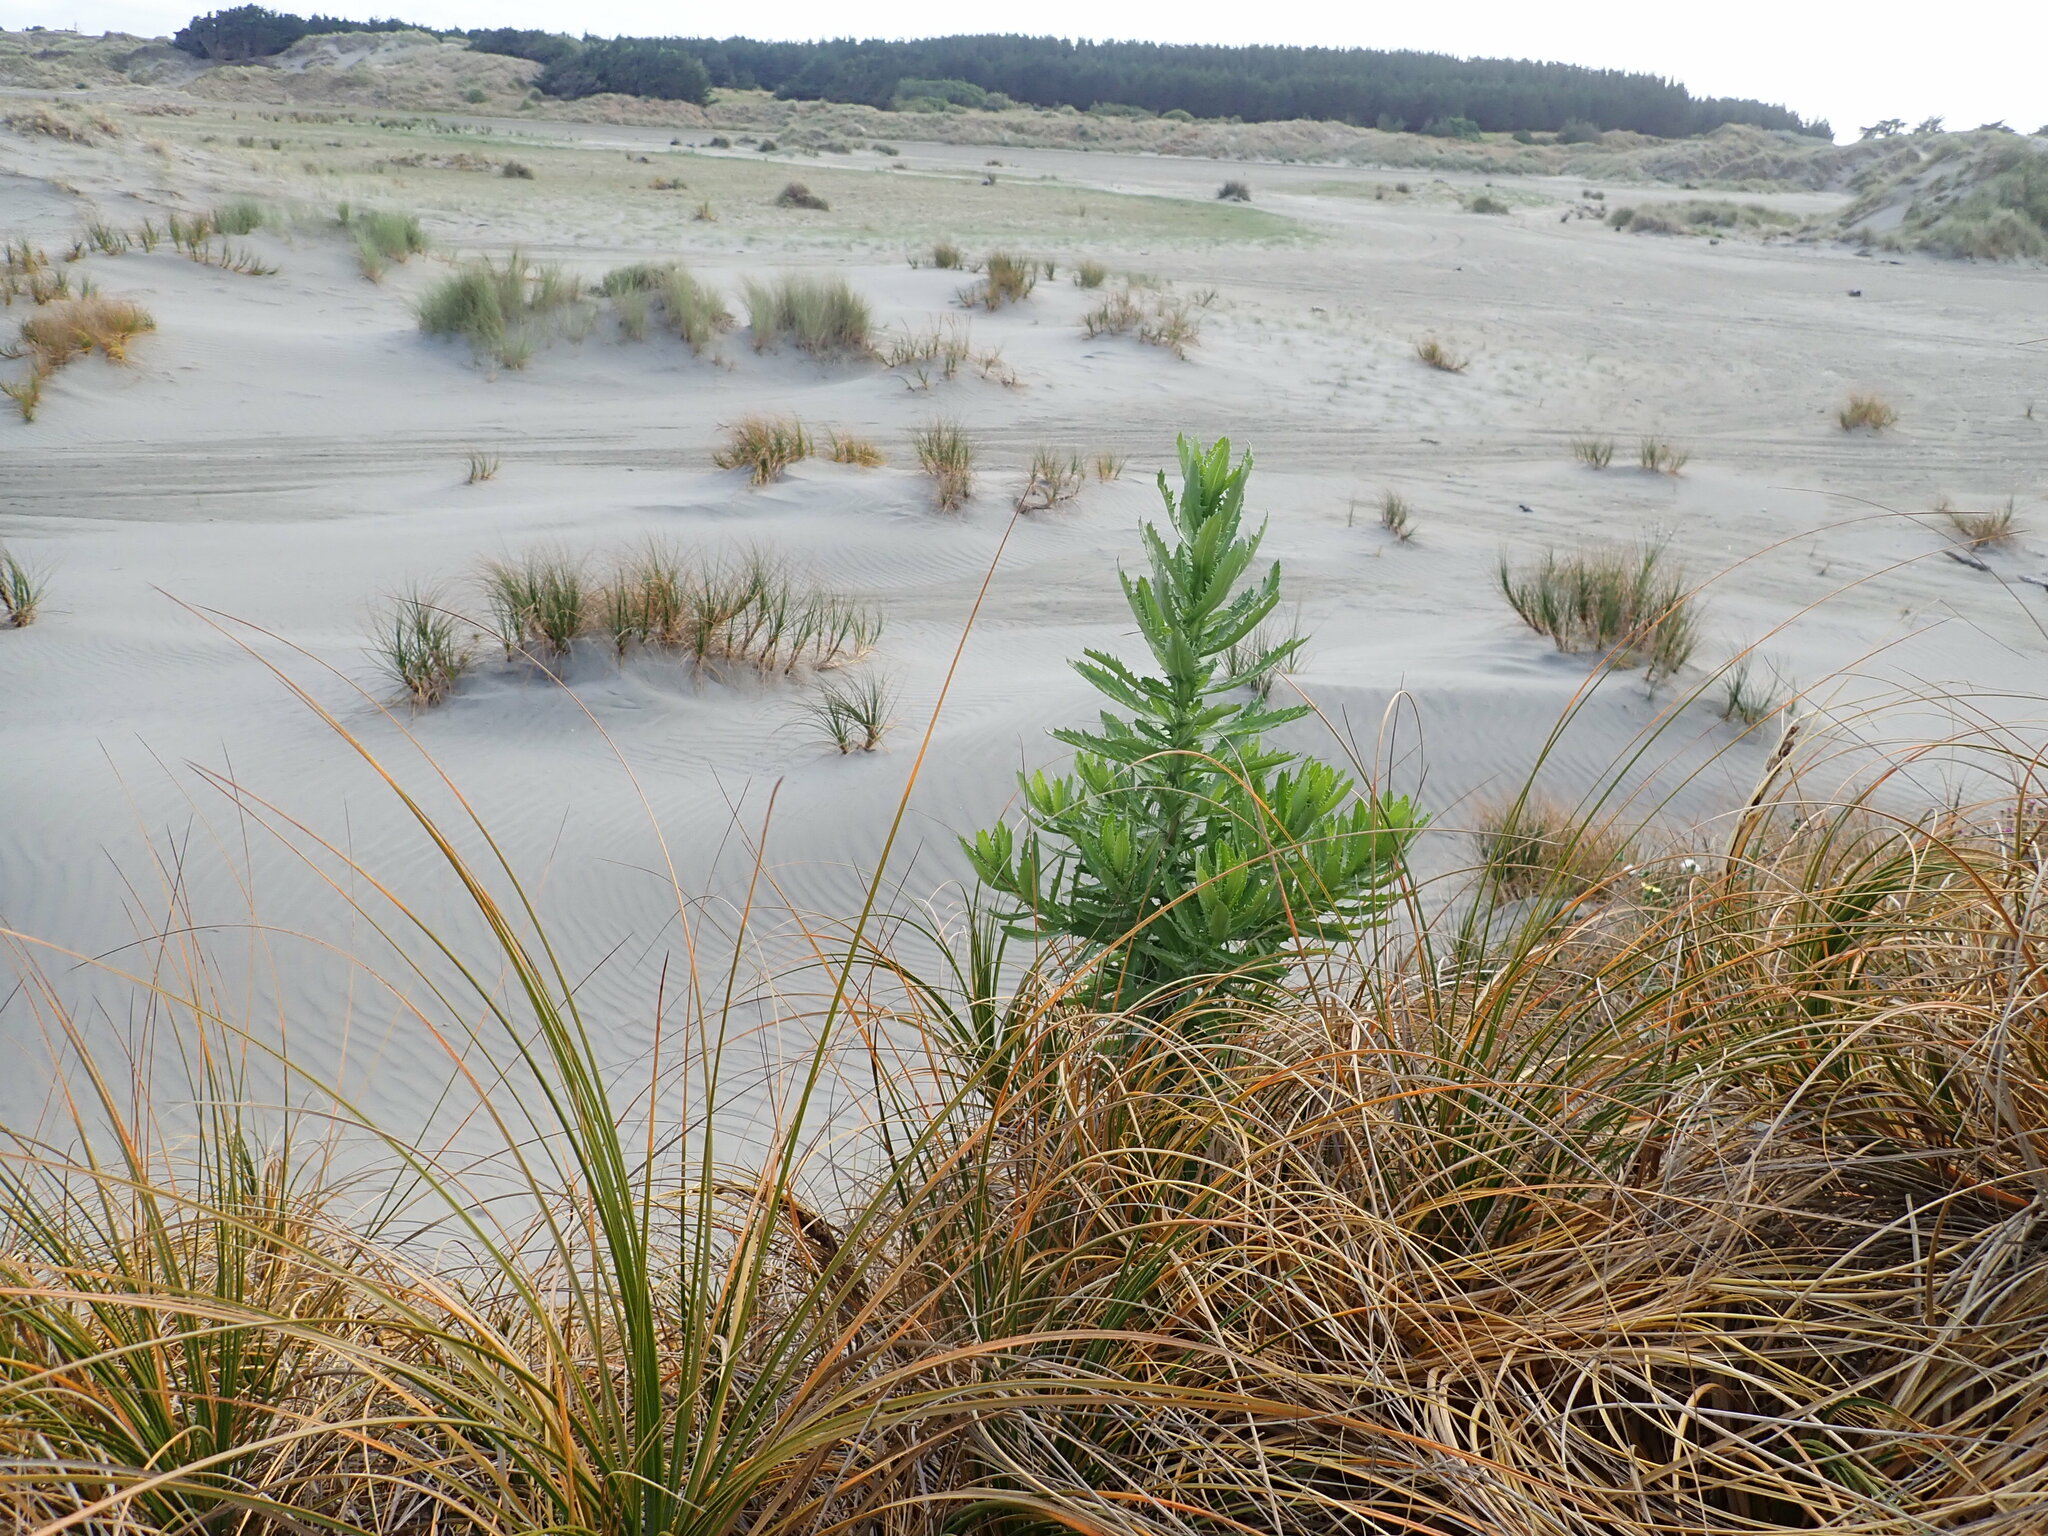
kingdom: Plantae
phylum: Tracheophyta
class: Magnoliopsida
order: Asterales
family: Asteraceae
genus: Senecio
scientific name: Senecio glastifolius
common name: Woad-leaved ragwort
